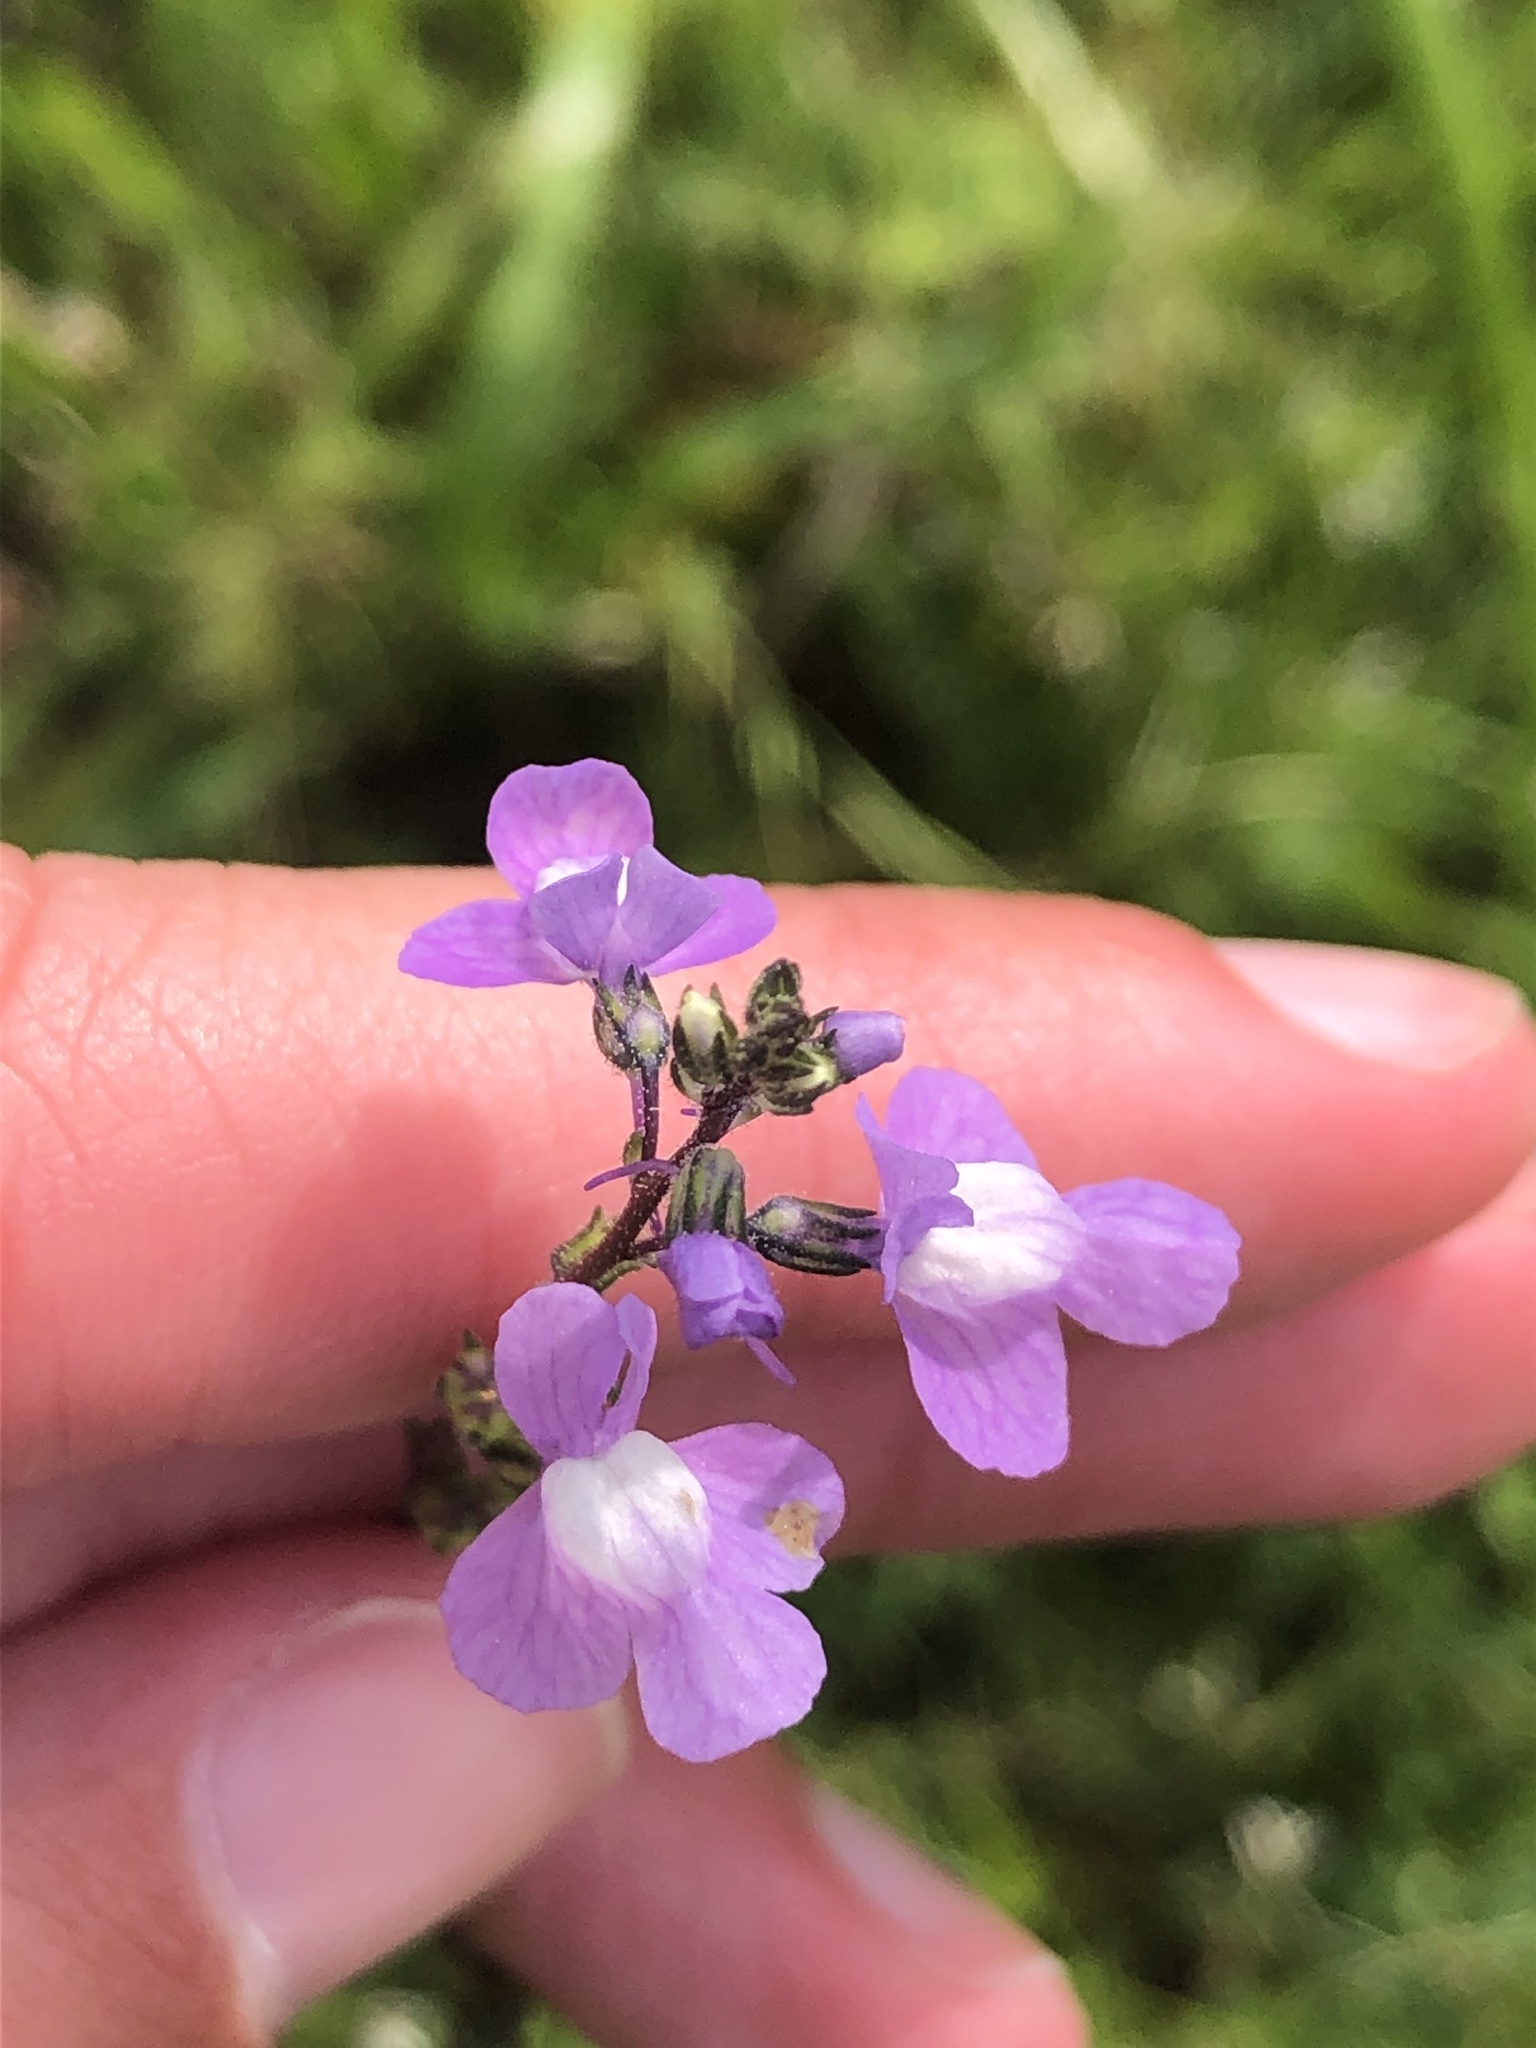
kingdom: Plantae
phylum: Tracheophyta
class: Magnoliopsida
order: Lamiales
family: Plantaginaceae
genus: Nuttallanthus
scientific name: Nuttallanthus canadensis
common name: Blue toadflax
